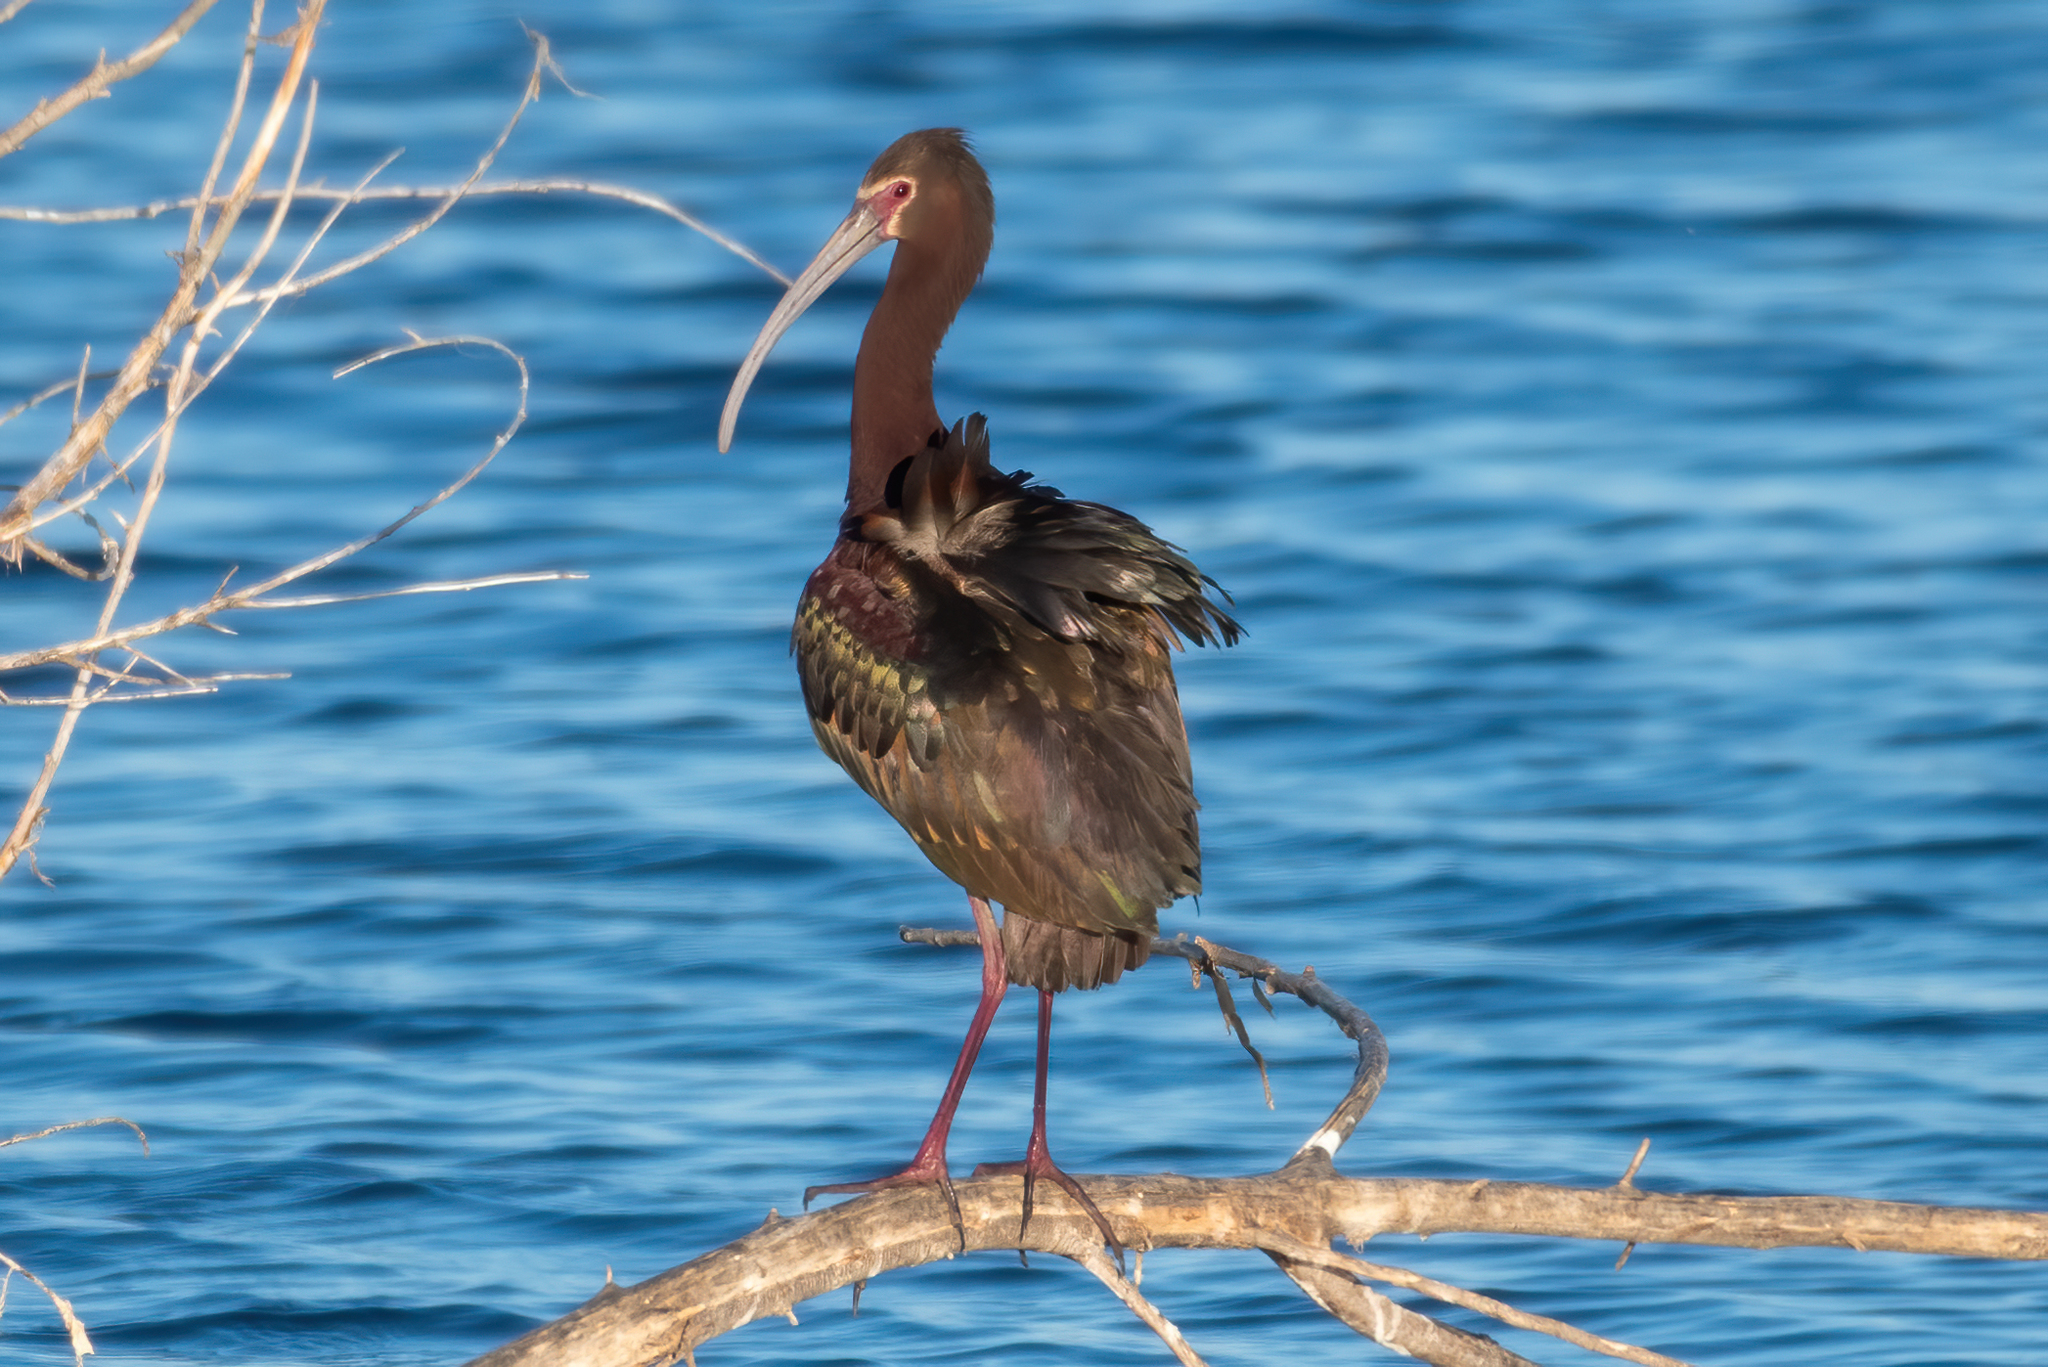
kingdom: Animalia
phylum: Chordata
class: Aves
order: Pelecaniformes
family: Threskiornithidae
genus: Plegadis
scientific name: Plegadis chihi
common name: White-faced ibis
